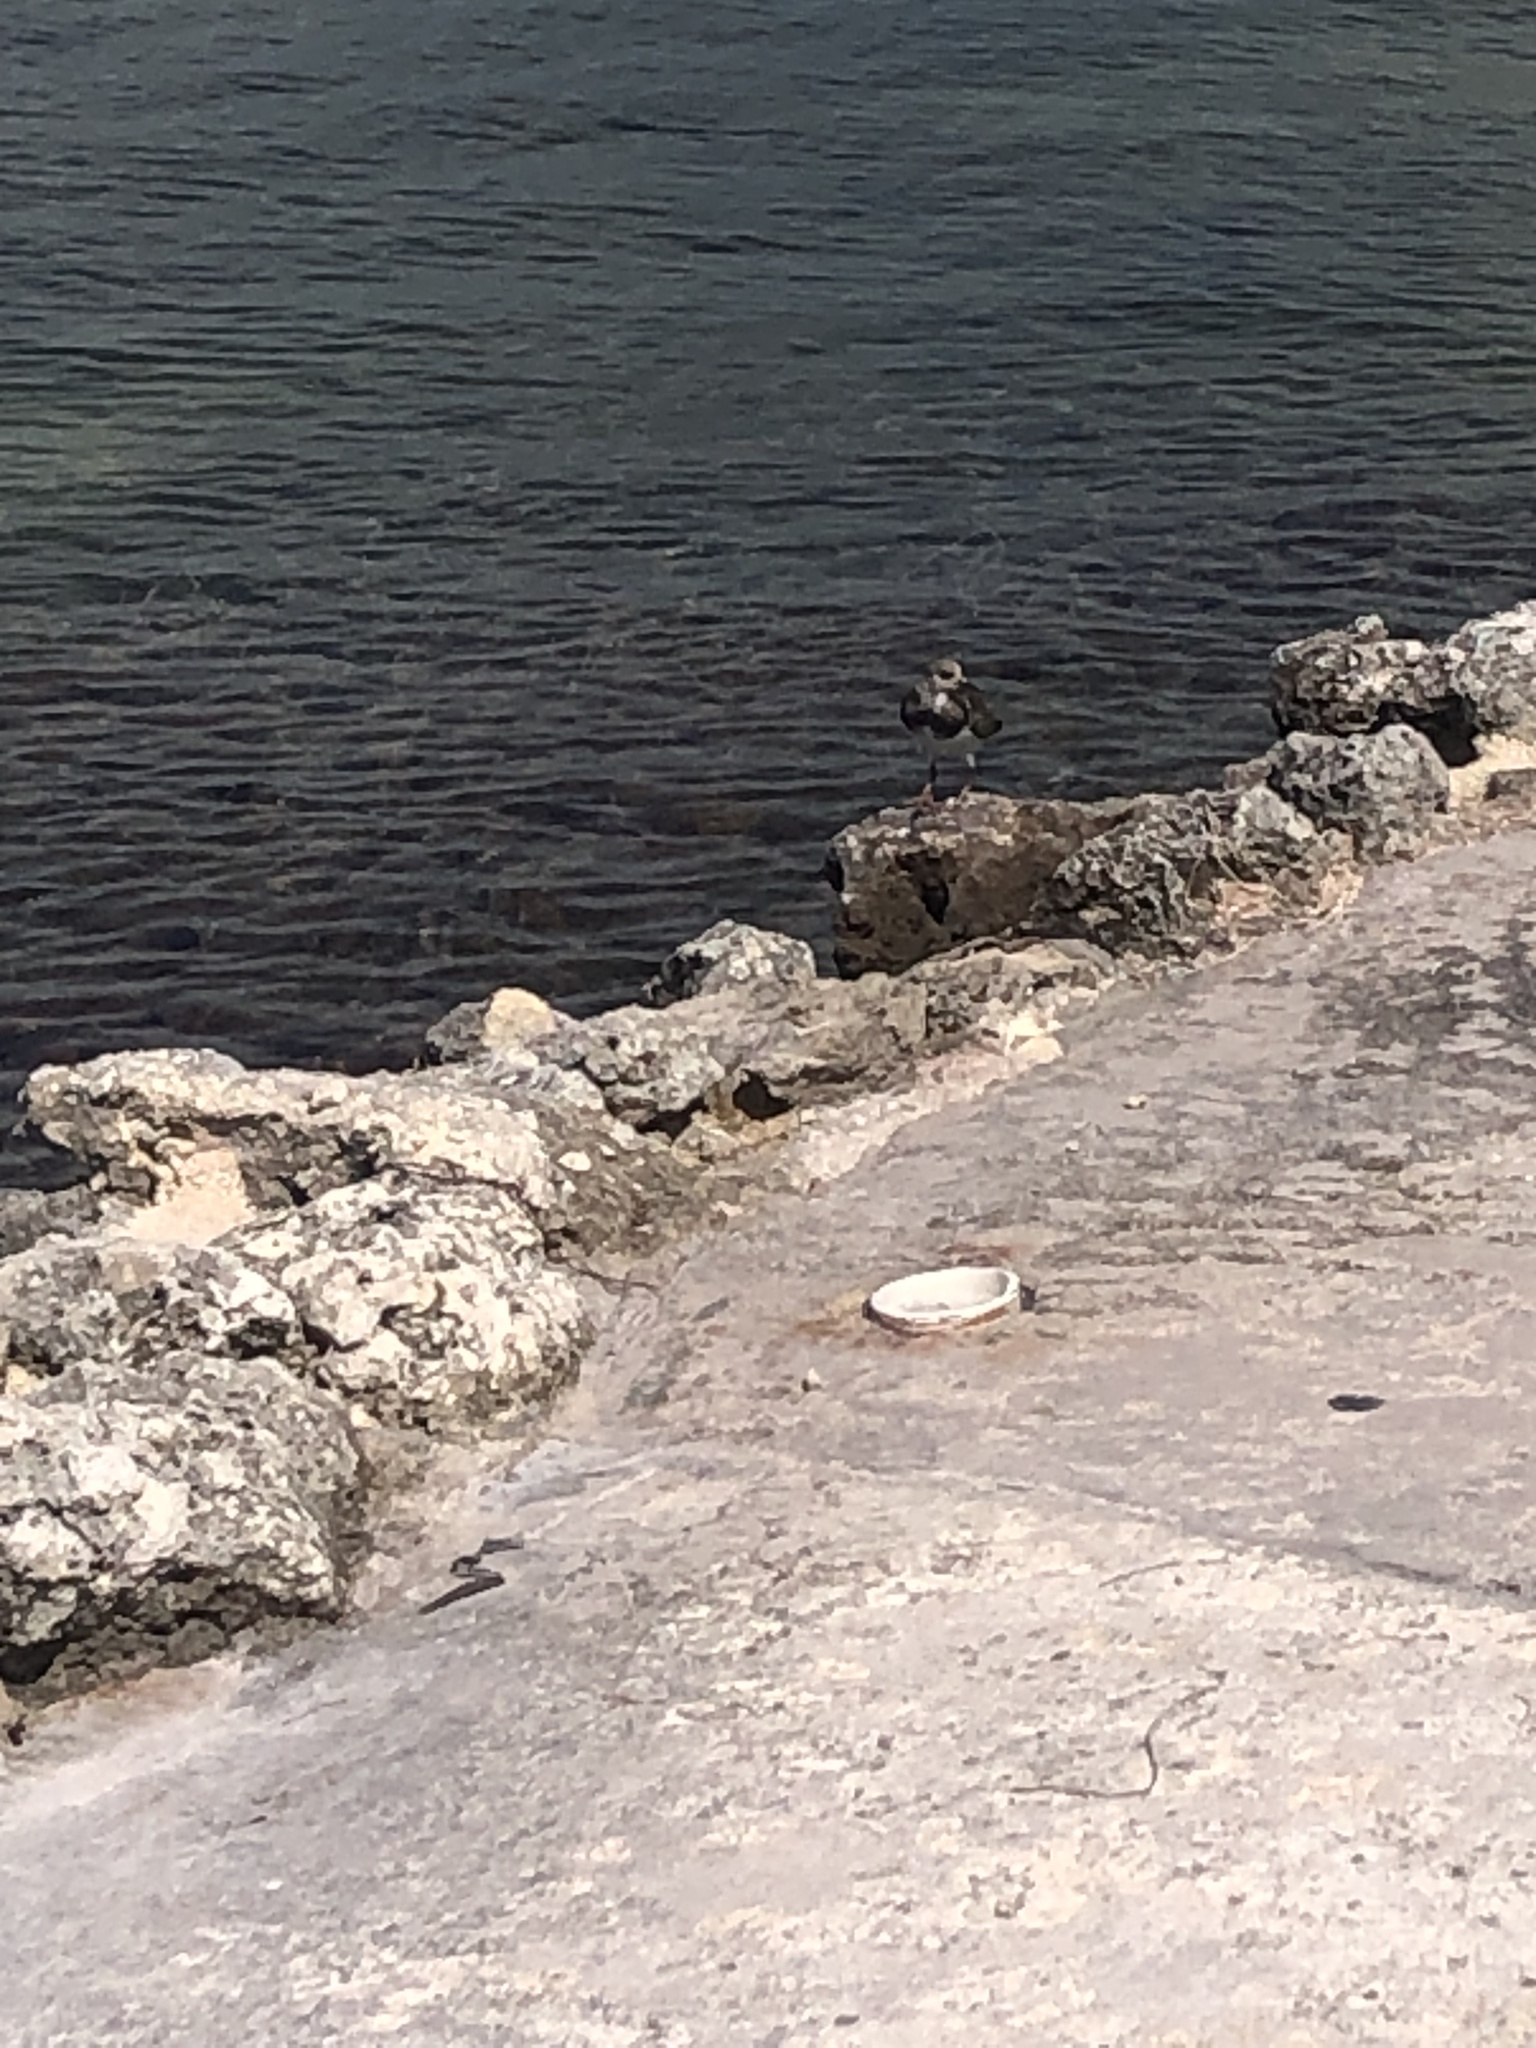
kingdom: Animalia
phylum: Chordata
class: Aves
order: Charadriiformes
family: Scolopacidae
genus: Arenaria
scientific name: Arenaria interpres
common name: Ruddy turnstone
